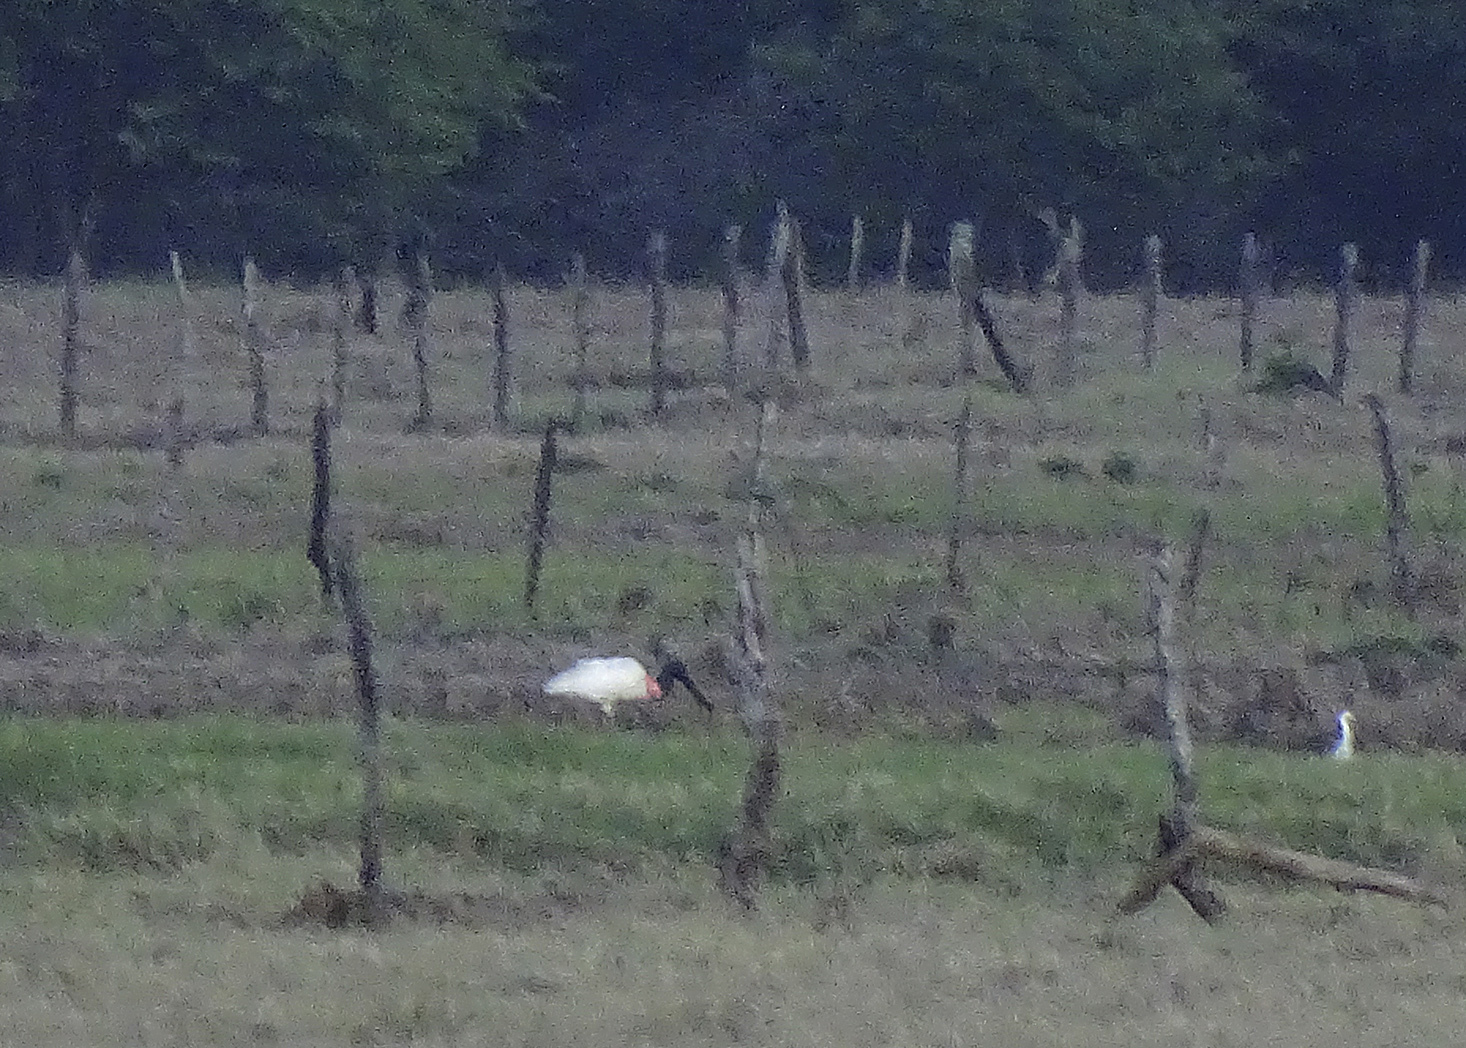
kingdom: Animalia
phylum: Chordata
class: Aves
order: Ciconiiformes
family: Ciconiidae
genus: Jabiru
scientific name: Jabiru mycteria
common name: Jabiru
